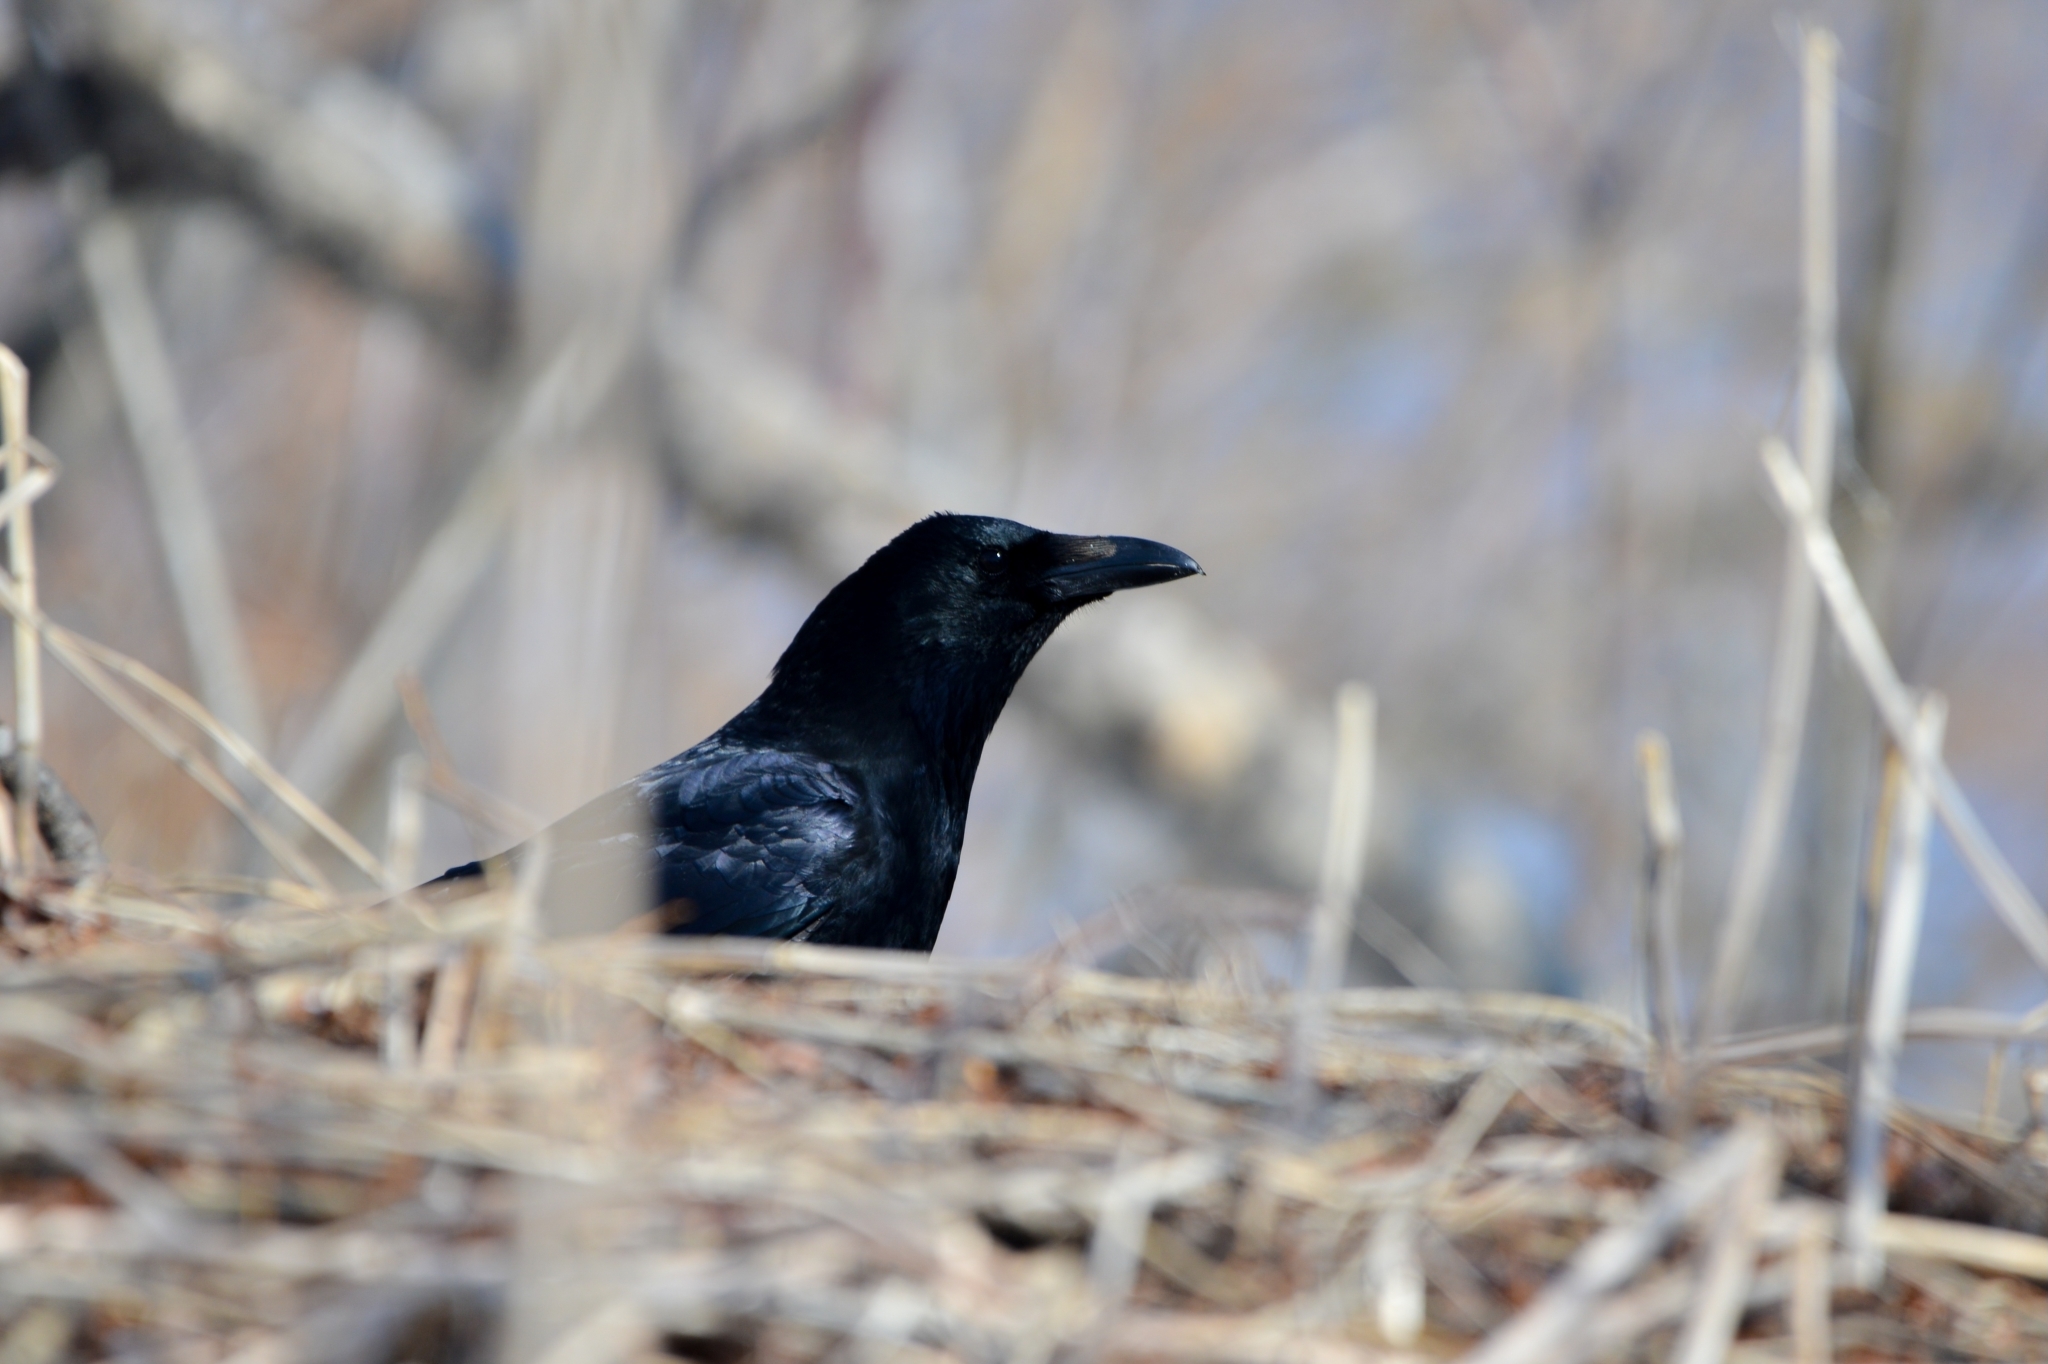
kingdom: Animalia
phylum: Chordata
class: Aves
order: Passeriformes
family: Corvidae
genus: Corvus
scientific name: Corvus corone
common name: Carrion crow
